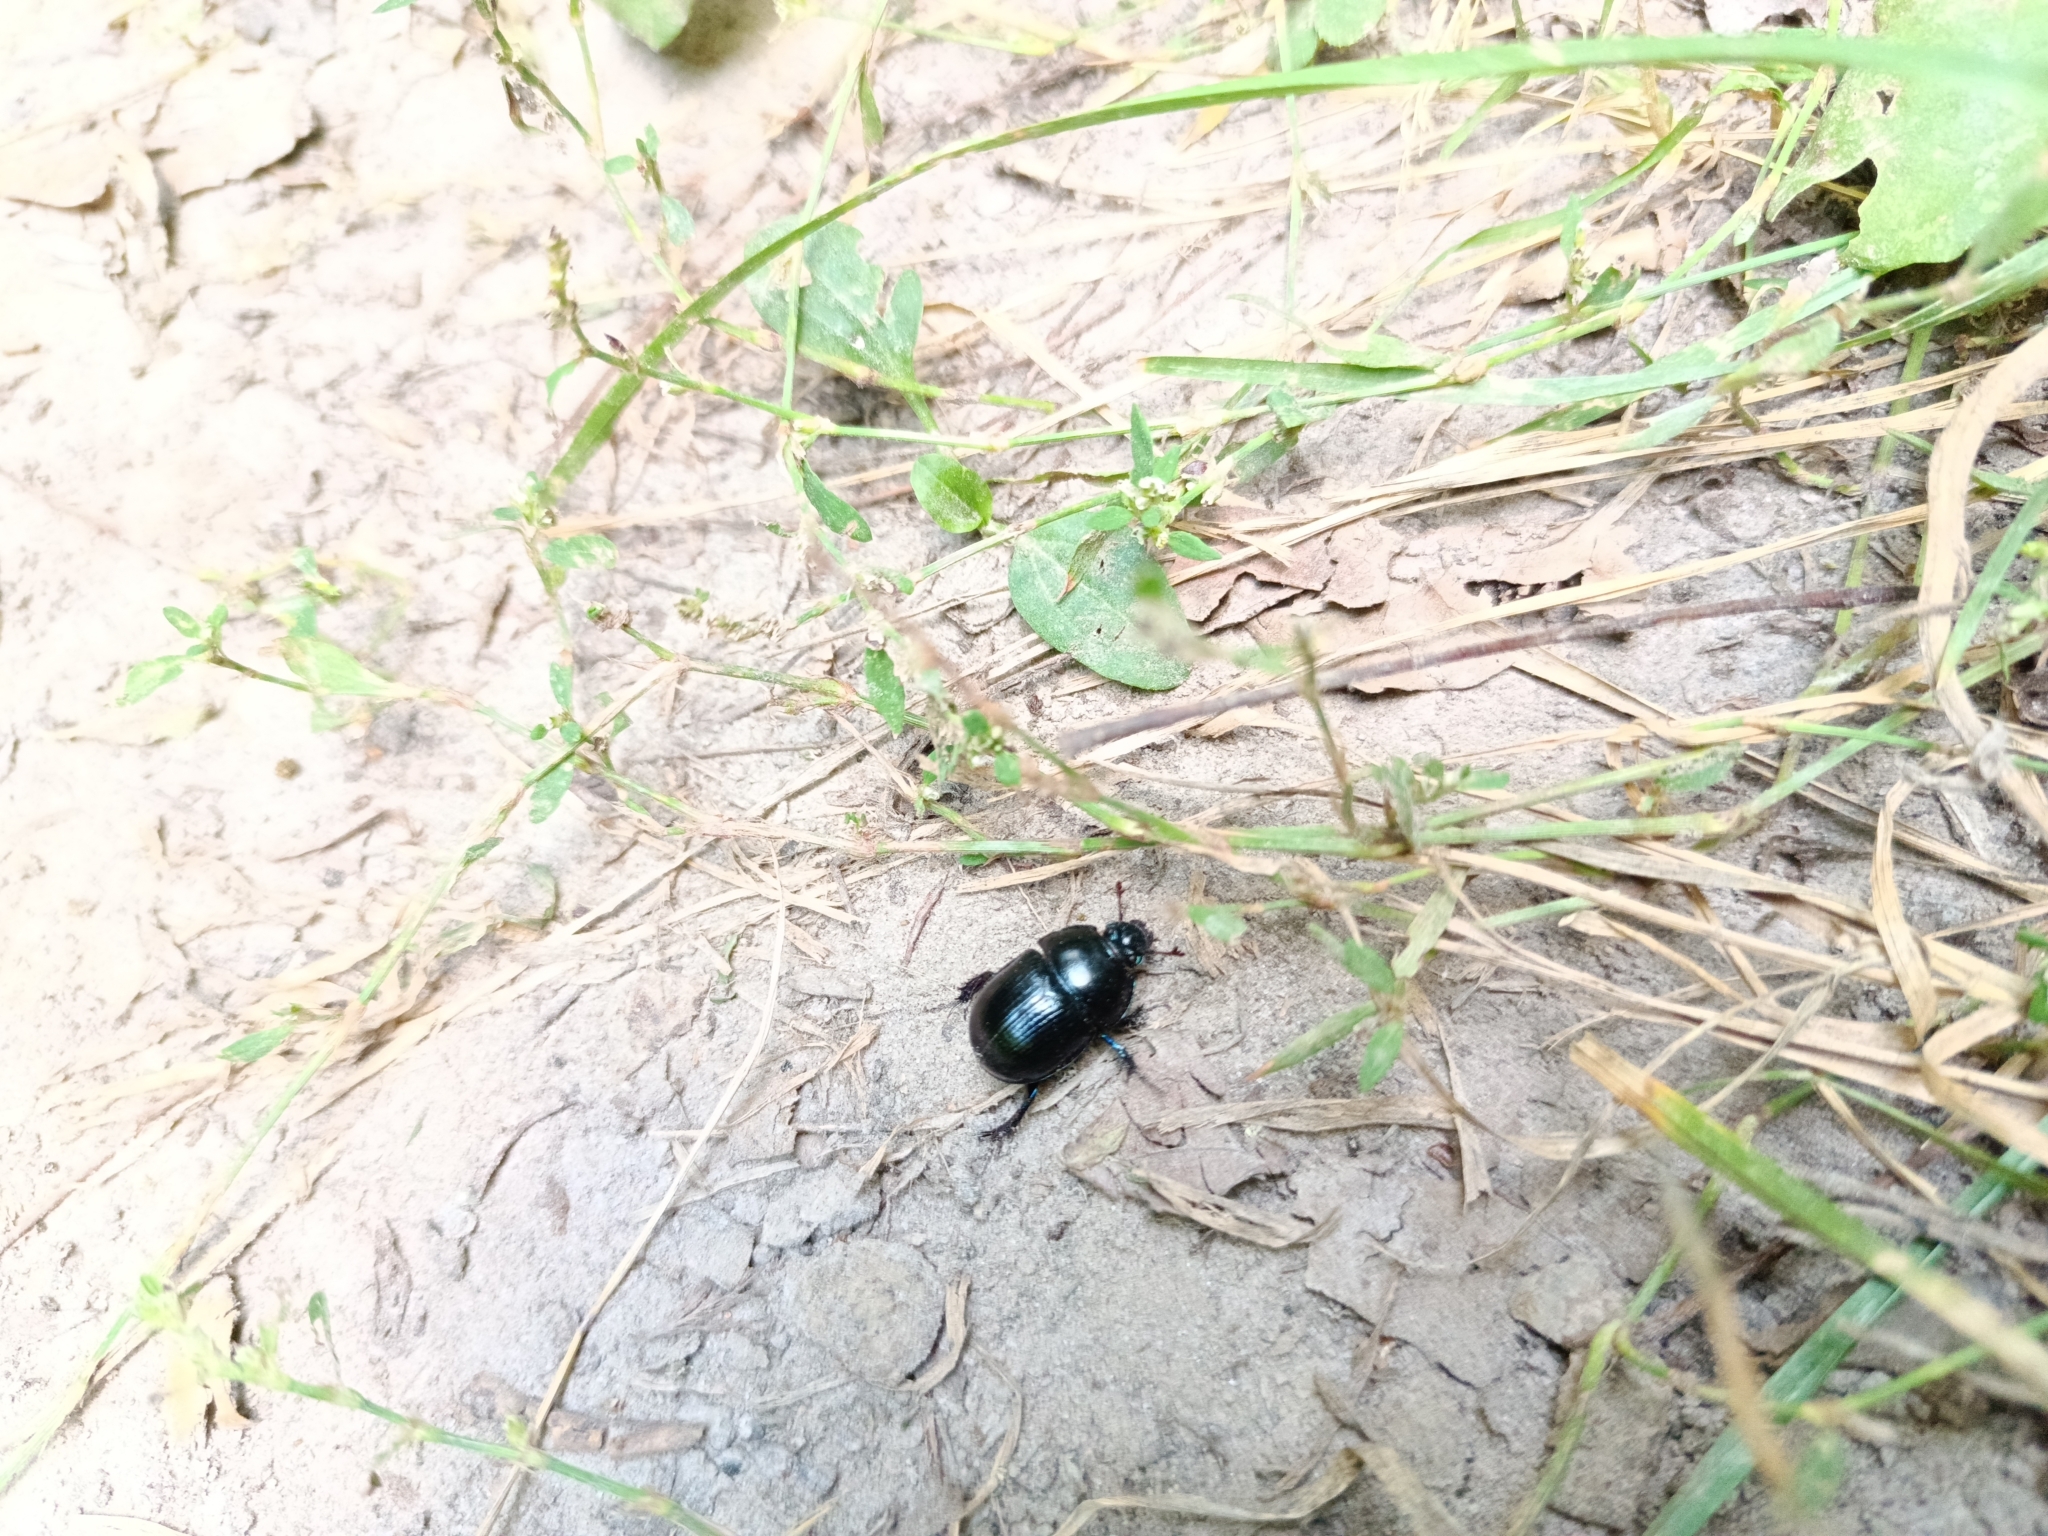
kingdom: Animalia
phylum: Arthropoda
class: Insecta
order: Coleoptera
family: Geotrupidae
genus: Anoplotrupes
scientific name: Anoplotrupes stercorosus
